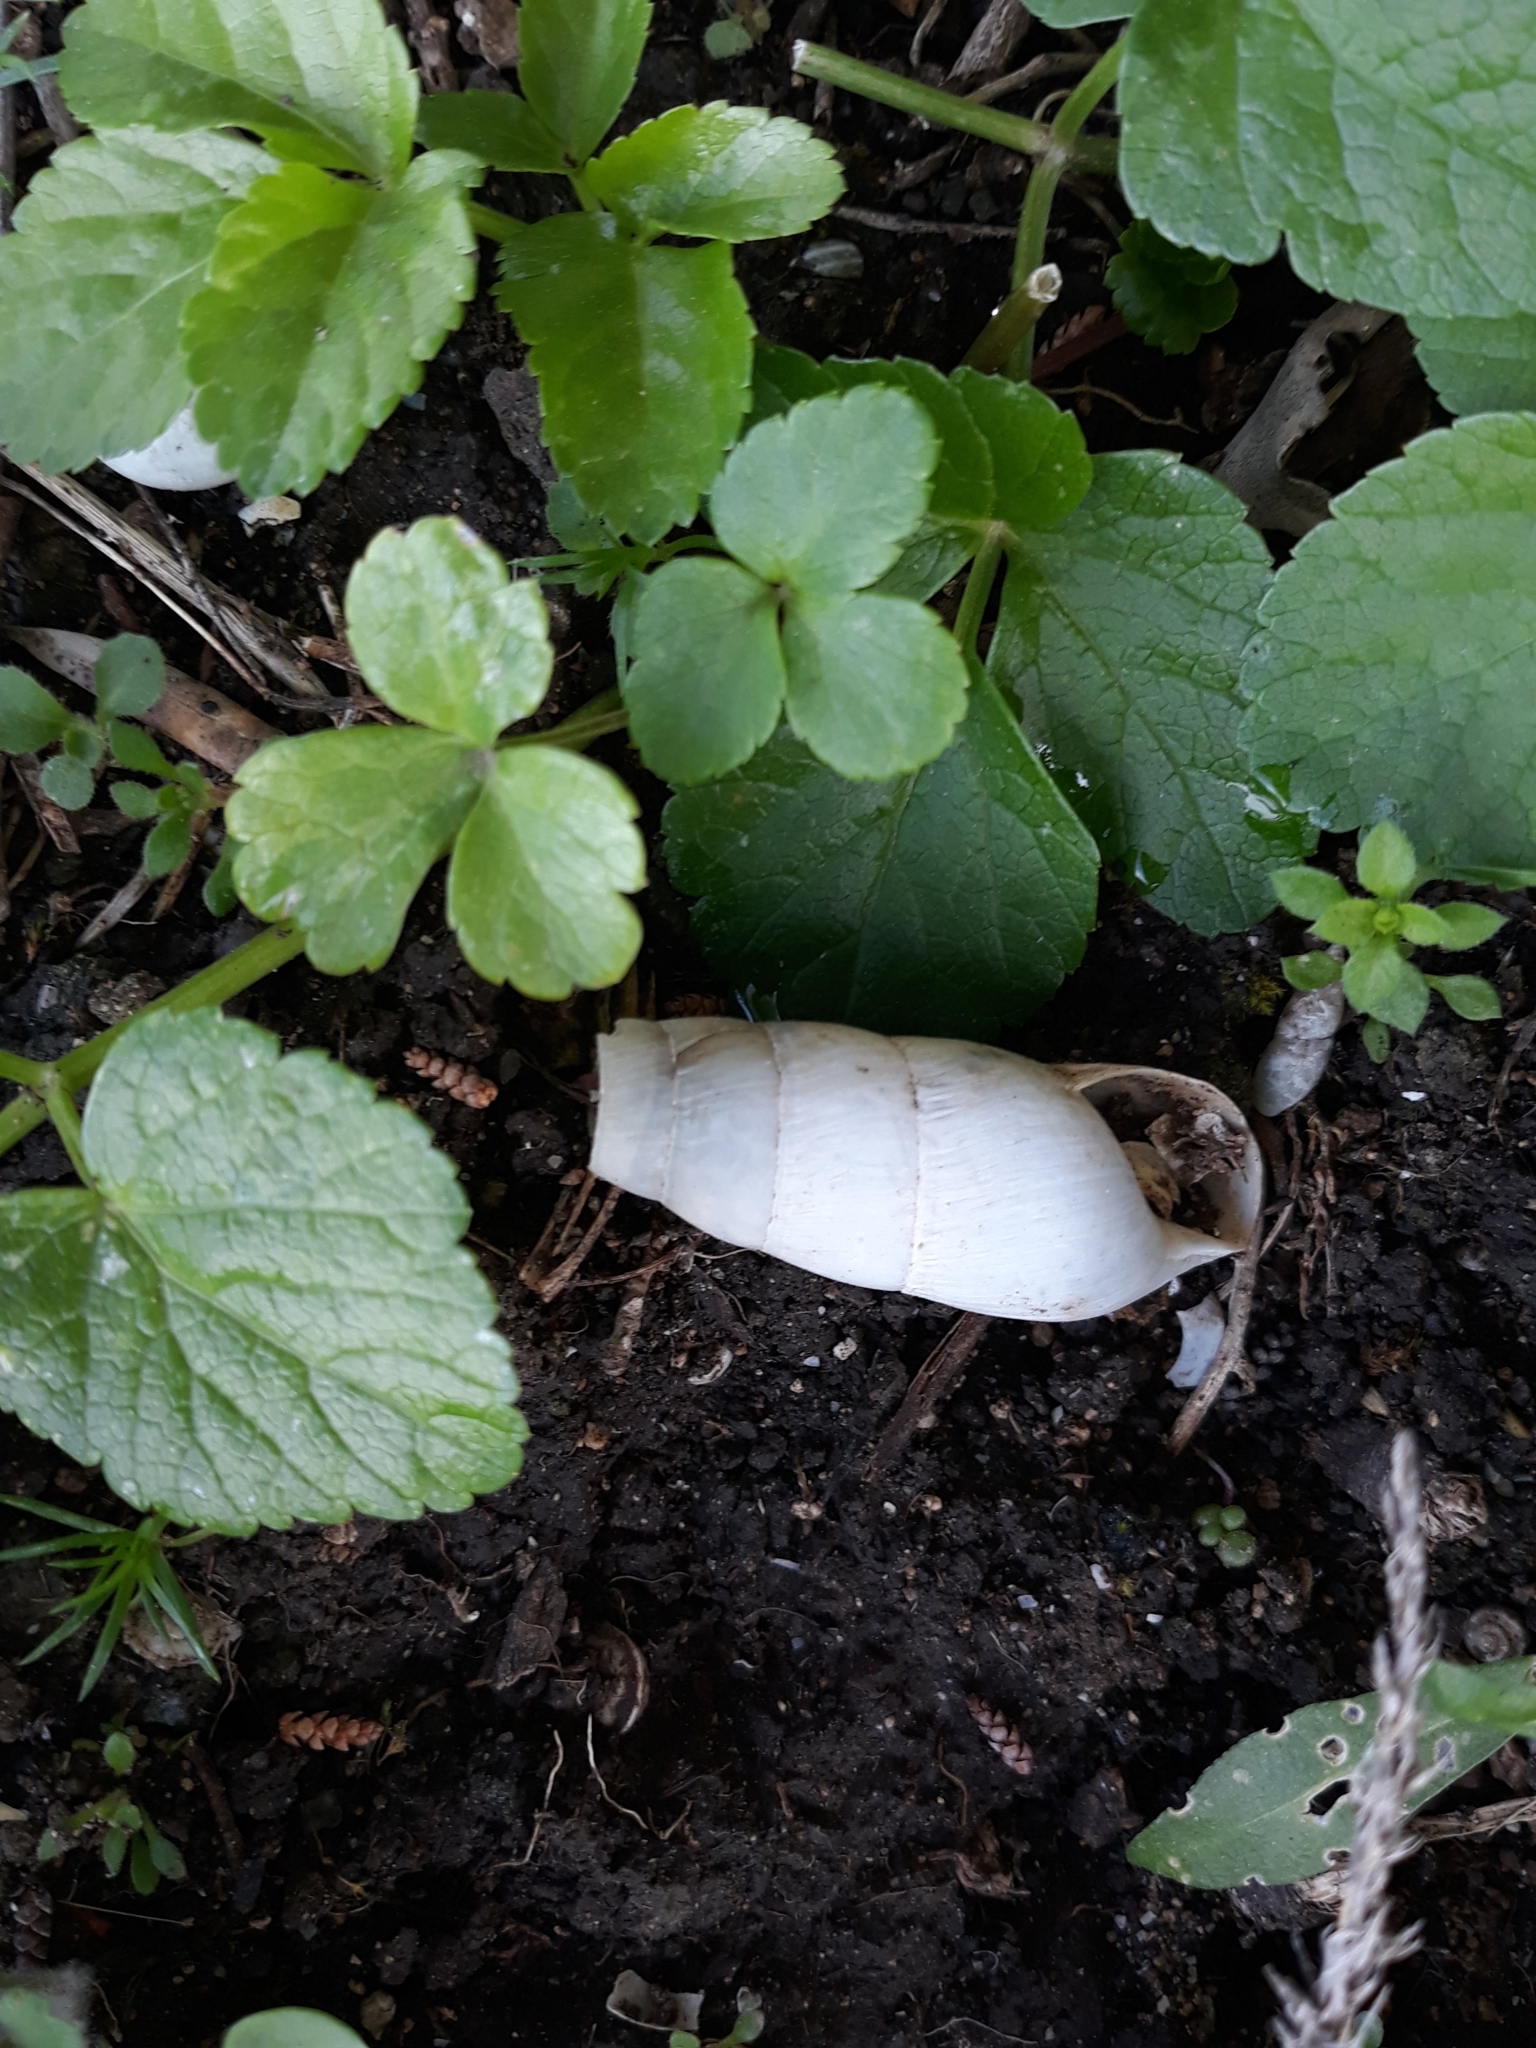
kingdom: Animalia
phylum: Mollusca
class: Gastropoda
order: Stylommatophora
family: Achatinidae
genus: Rumina
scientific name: Rumina decollata
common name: Decollate snail
